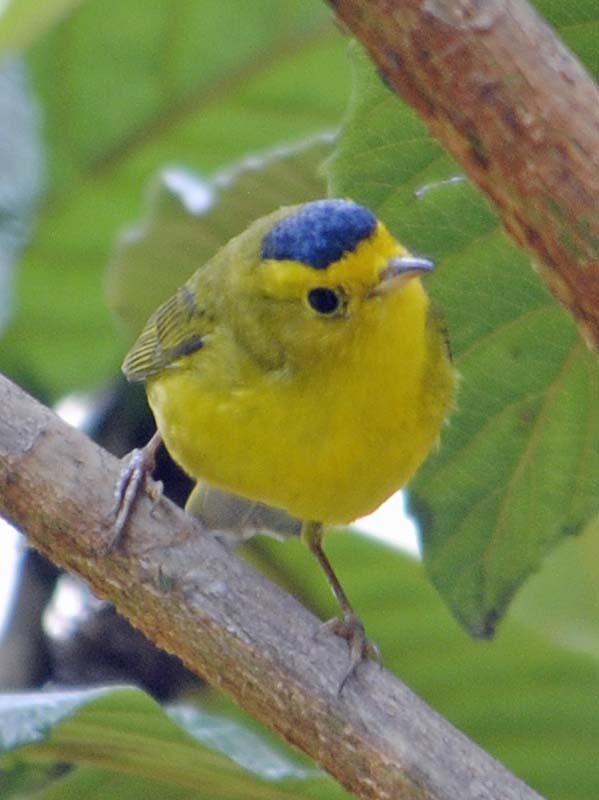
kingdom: Animalia
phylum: Chordata
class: Aves
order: Passeriformes
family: Parulidae
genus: Cardellina
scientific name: Cardellina pusilla
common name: Wilson's warbler
